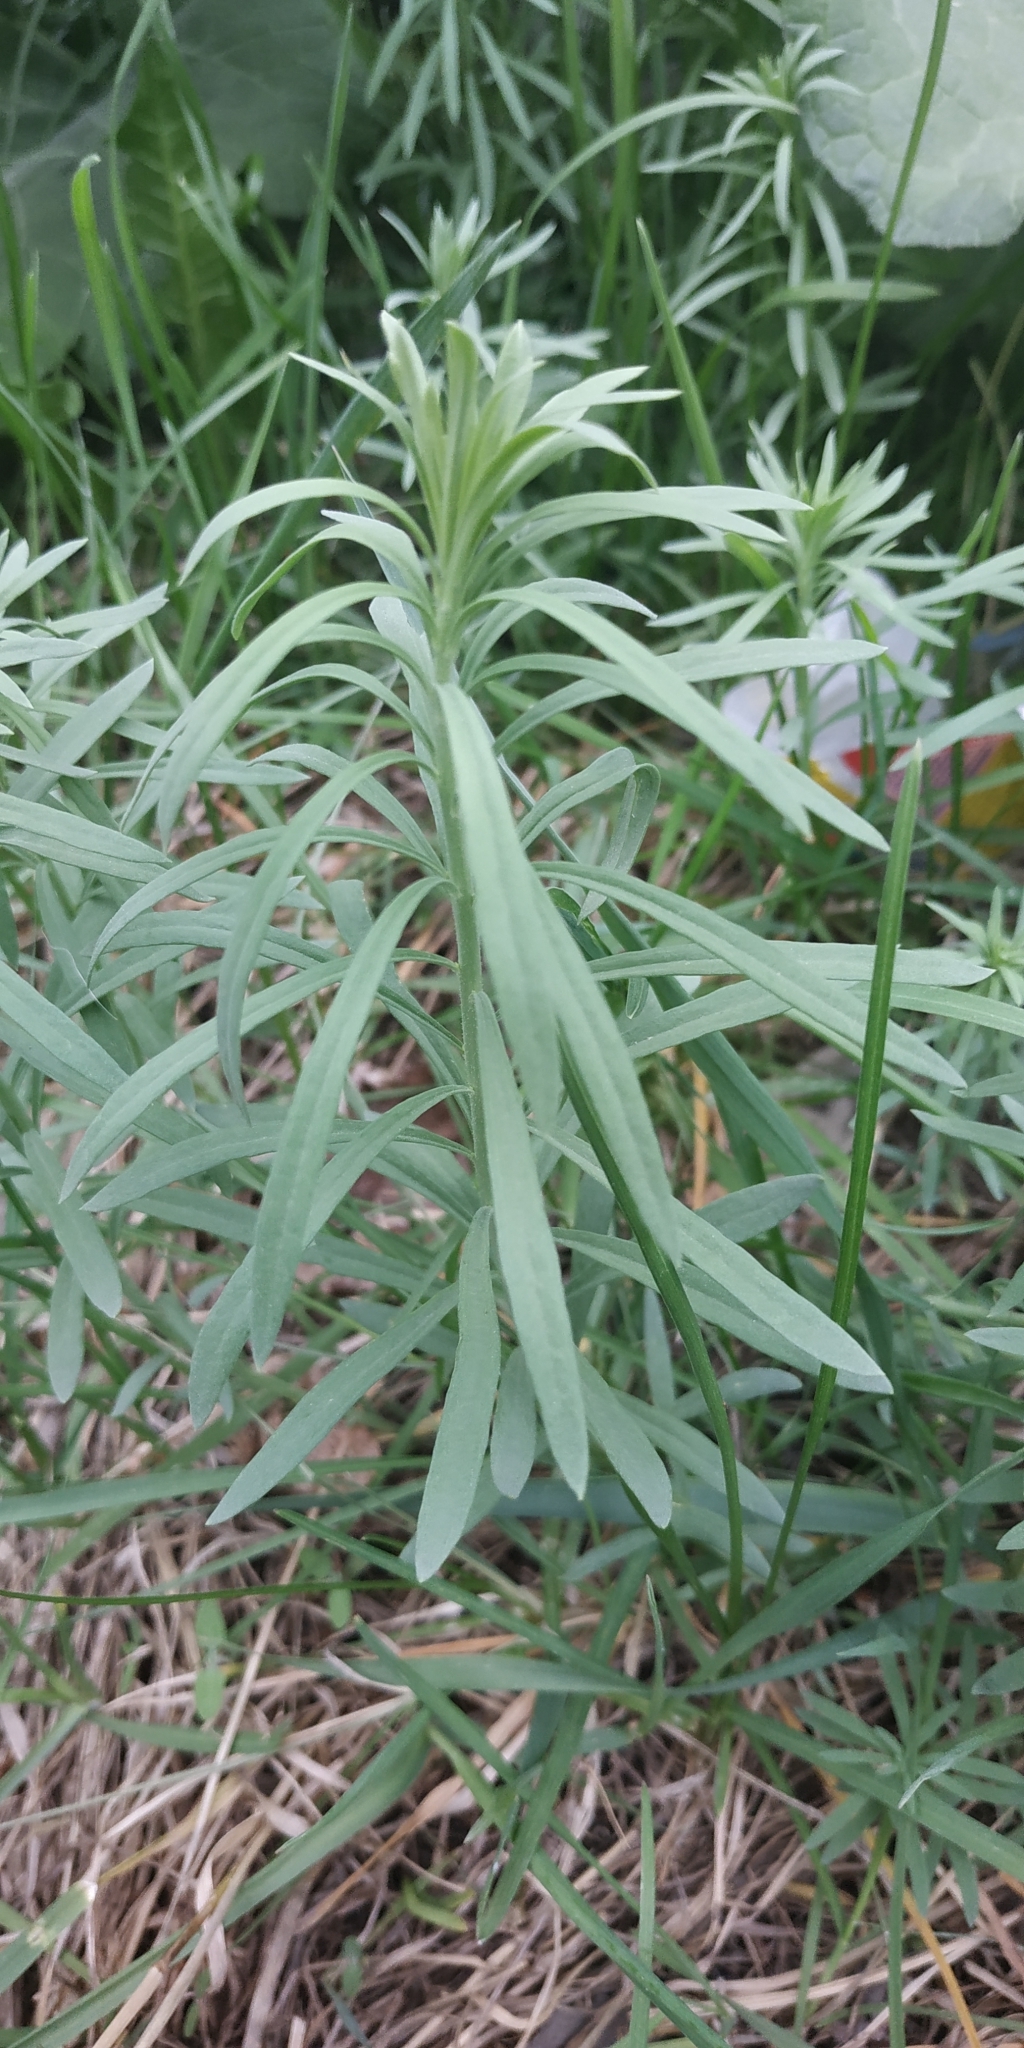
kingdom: Plantae
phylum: Tracheophyta
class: Magnoliopsida
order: Lamiales
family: Plantaginaceae
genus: Linaria
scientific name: Linaria vulgaris
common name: Butter and eggs
